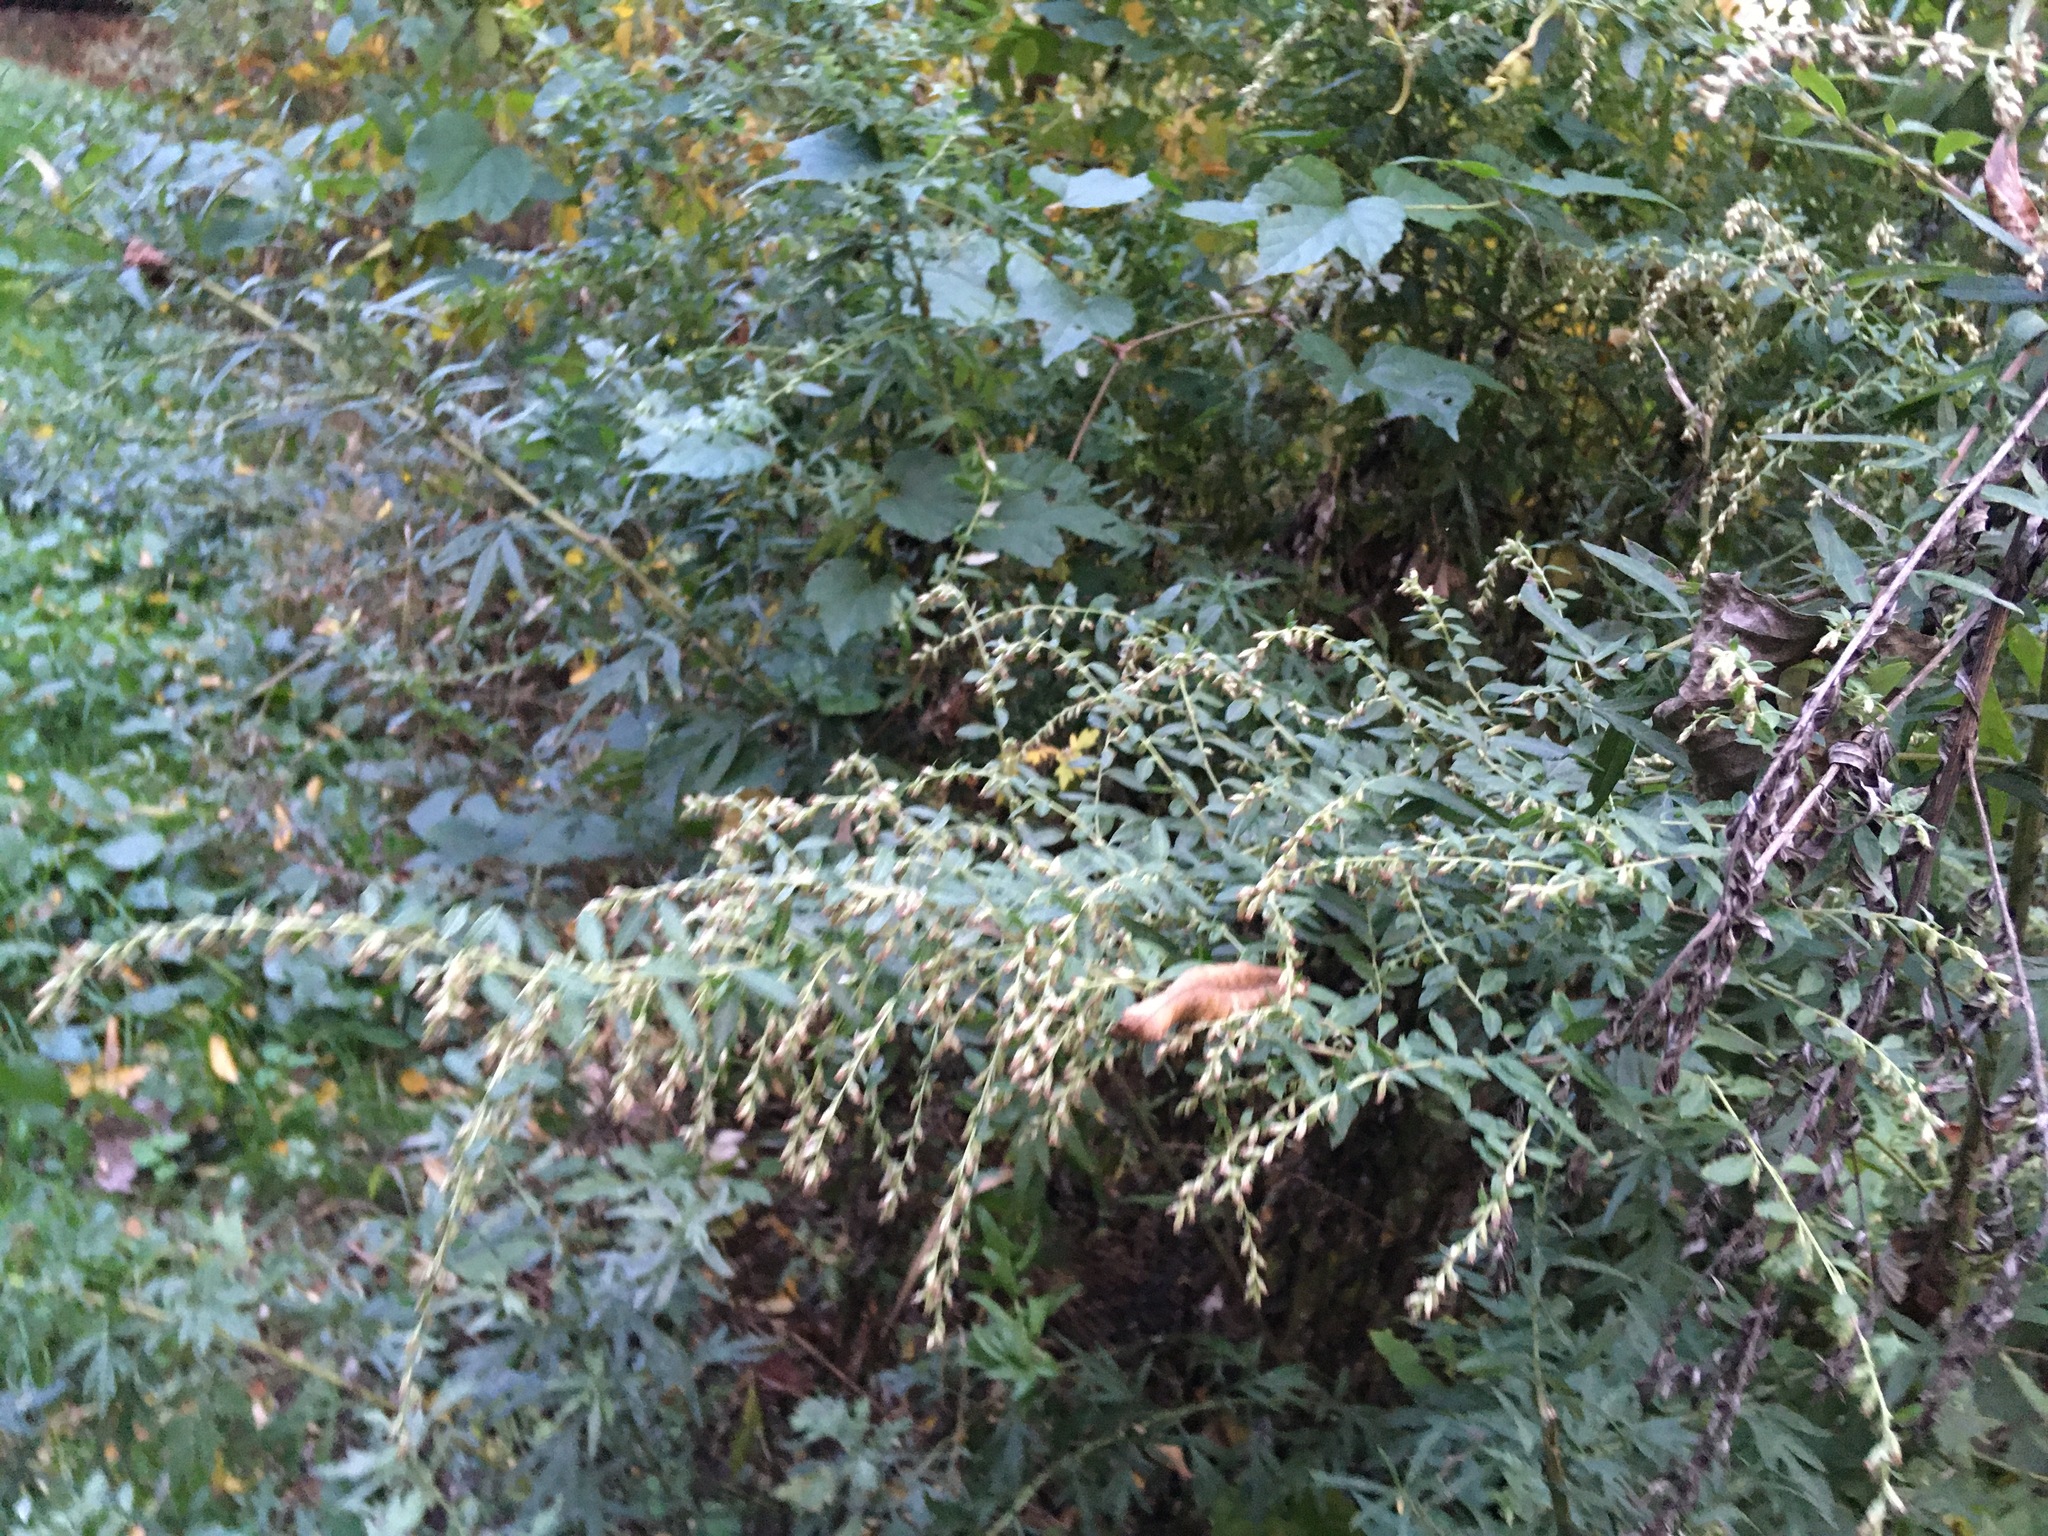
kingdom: Plantae
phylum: Tracheophyta
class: Magnoliopsida
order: Asterales
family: Asteraceae
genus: Artemisia
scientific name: Artemisia vulgaris
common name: Mugwort
